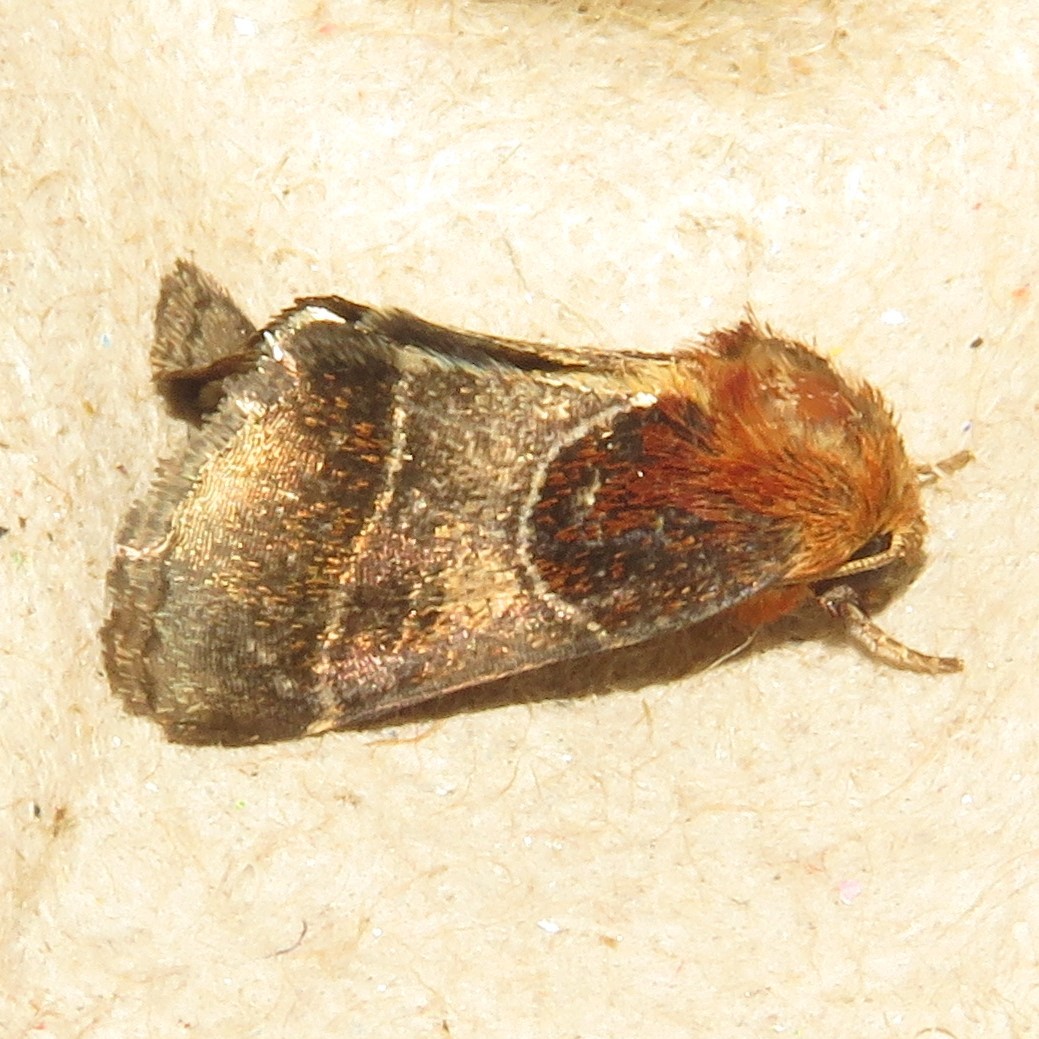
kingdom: Animalia
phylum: Arthropoda
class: Insecta
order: Lepidoptera
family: Noctuidae
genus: Schinia
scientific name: Schinia arcigera
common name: Arcigera flower moth
